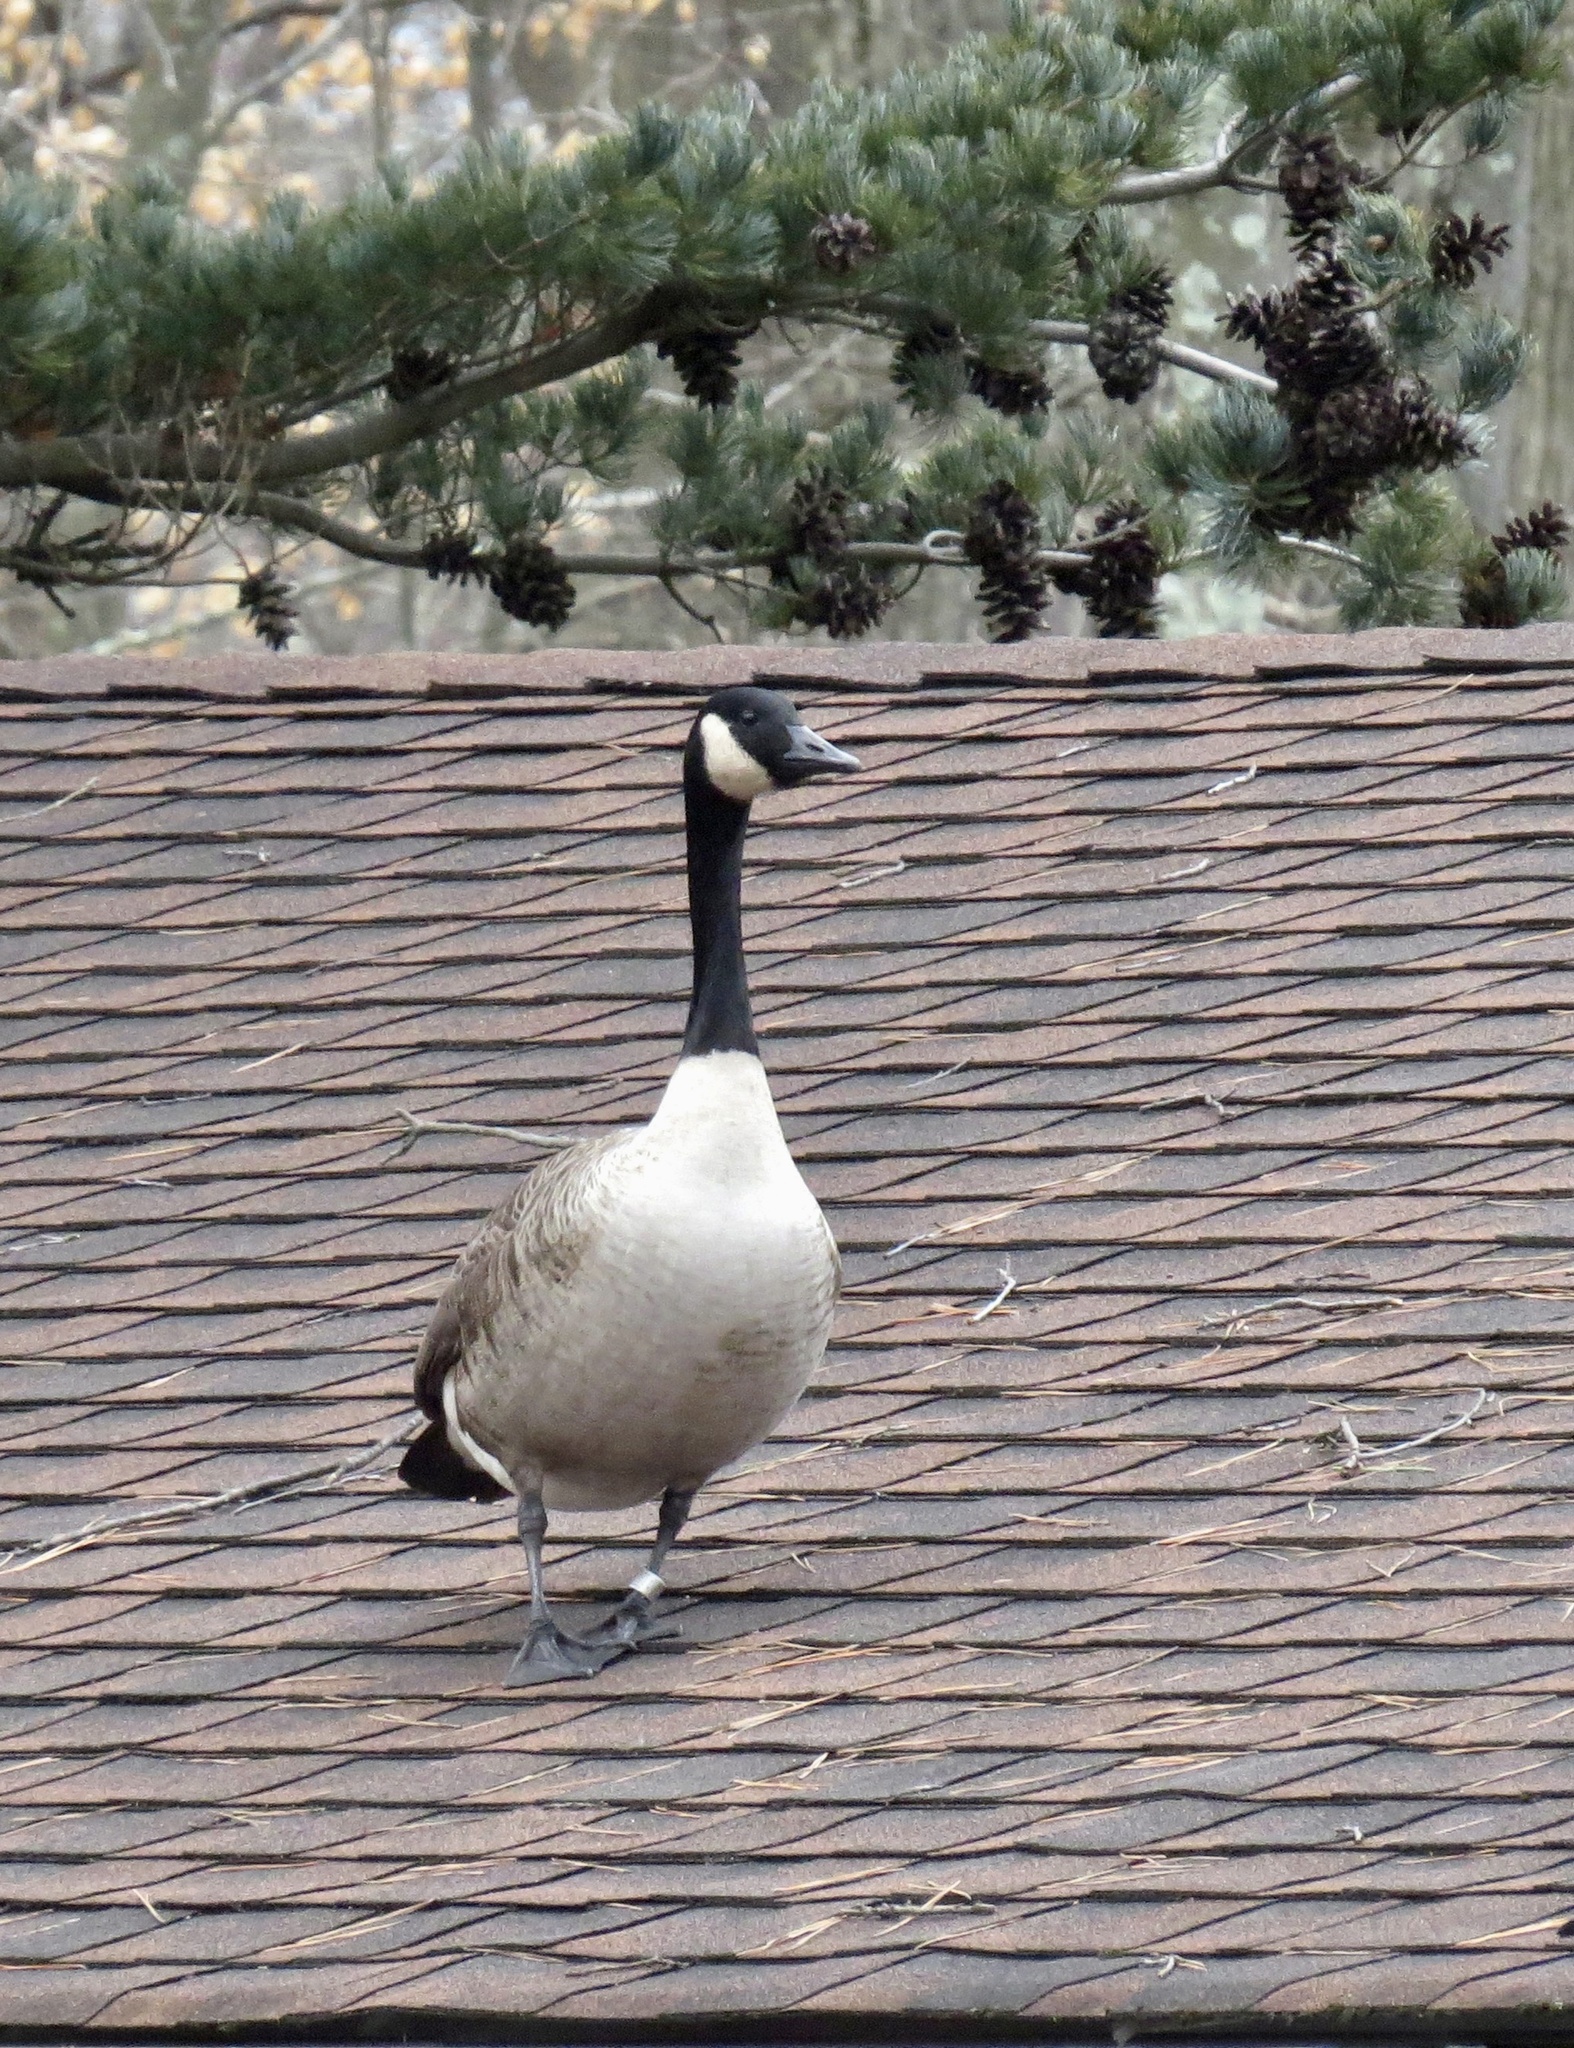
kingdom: Animalia
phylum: Chordata
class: Aves
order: Anseriformes
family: Anatidae
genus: Branta
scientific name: Branta canadensis
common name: Canada goose
